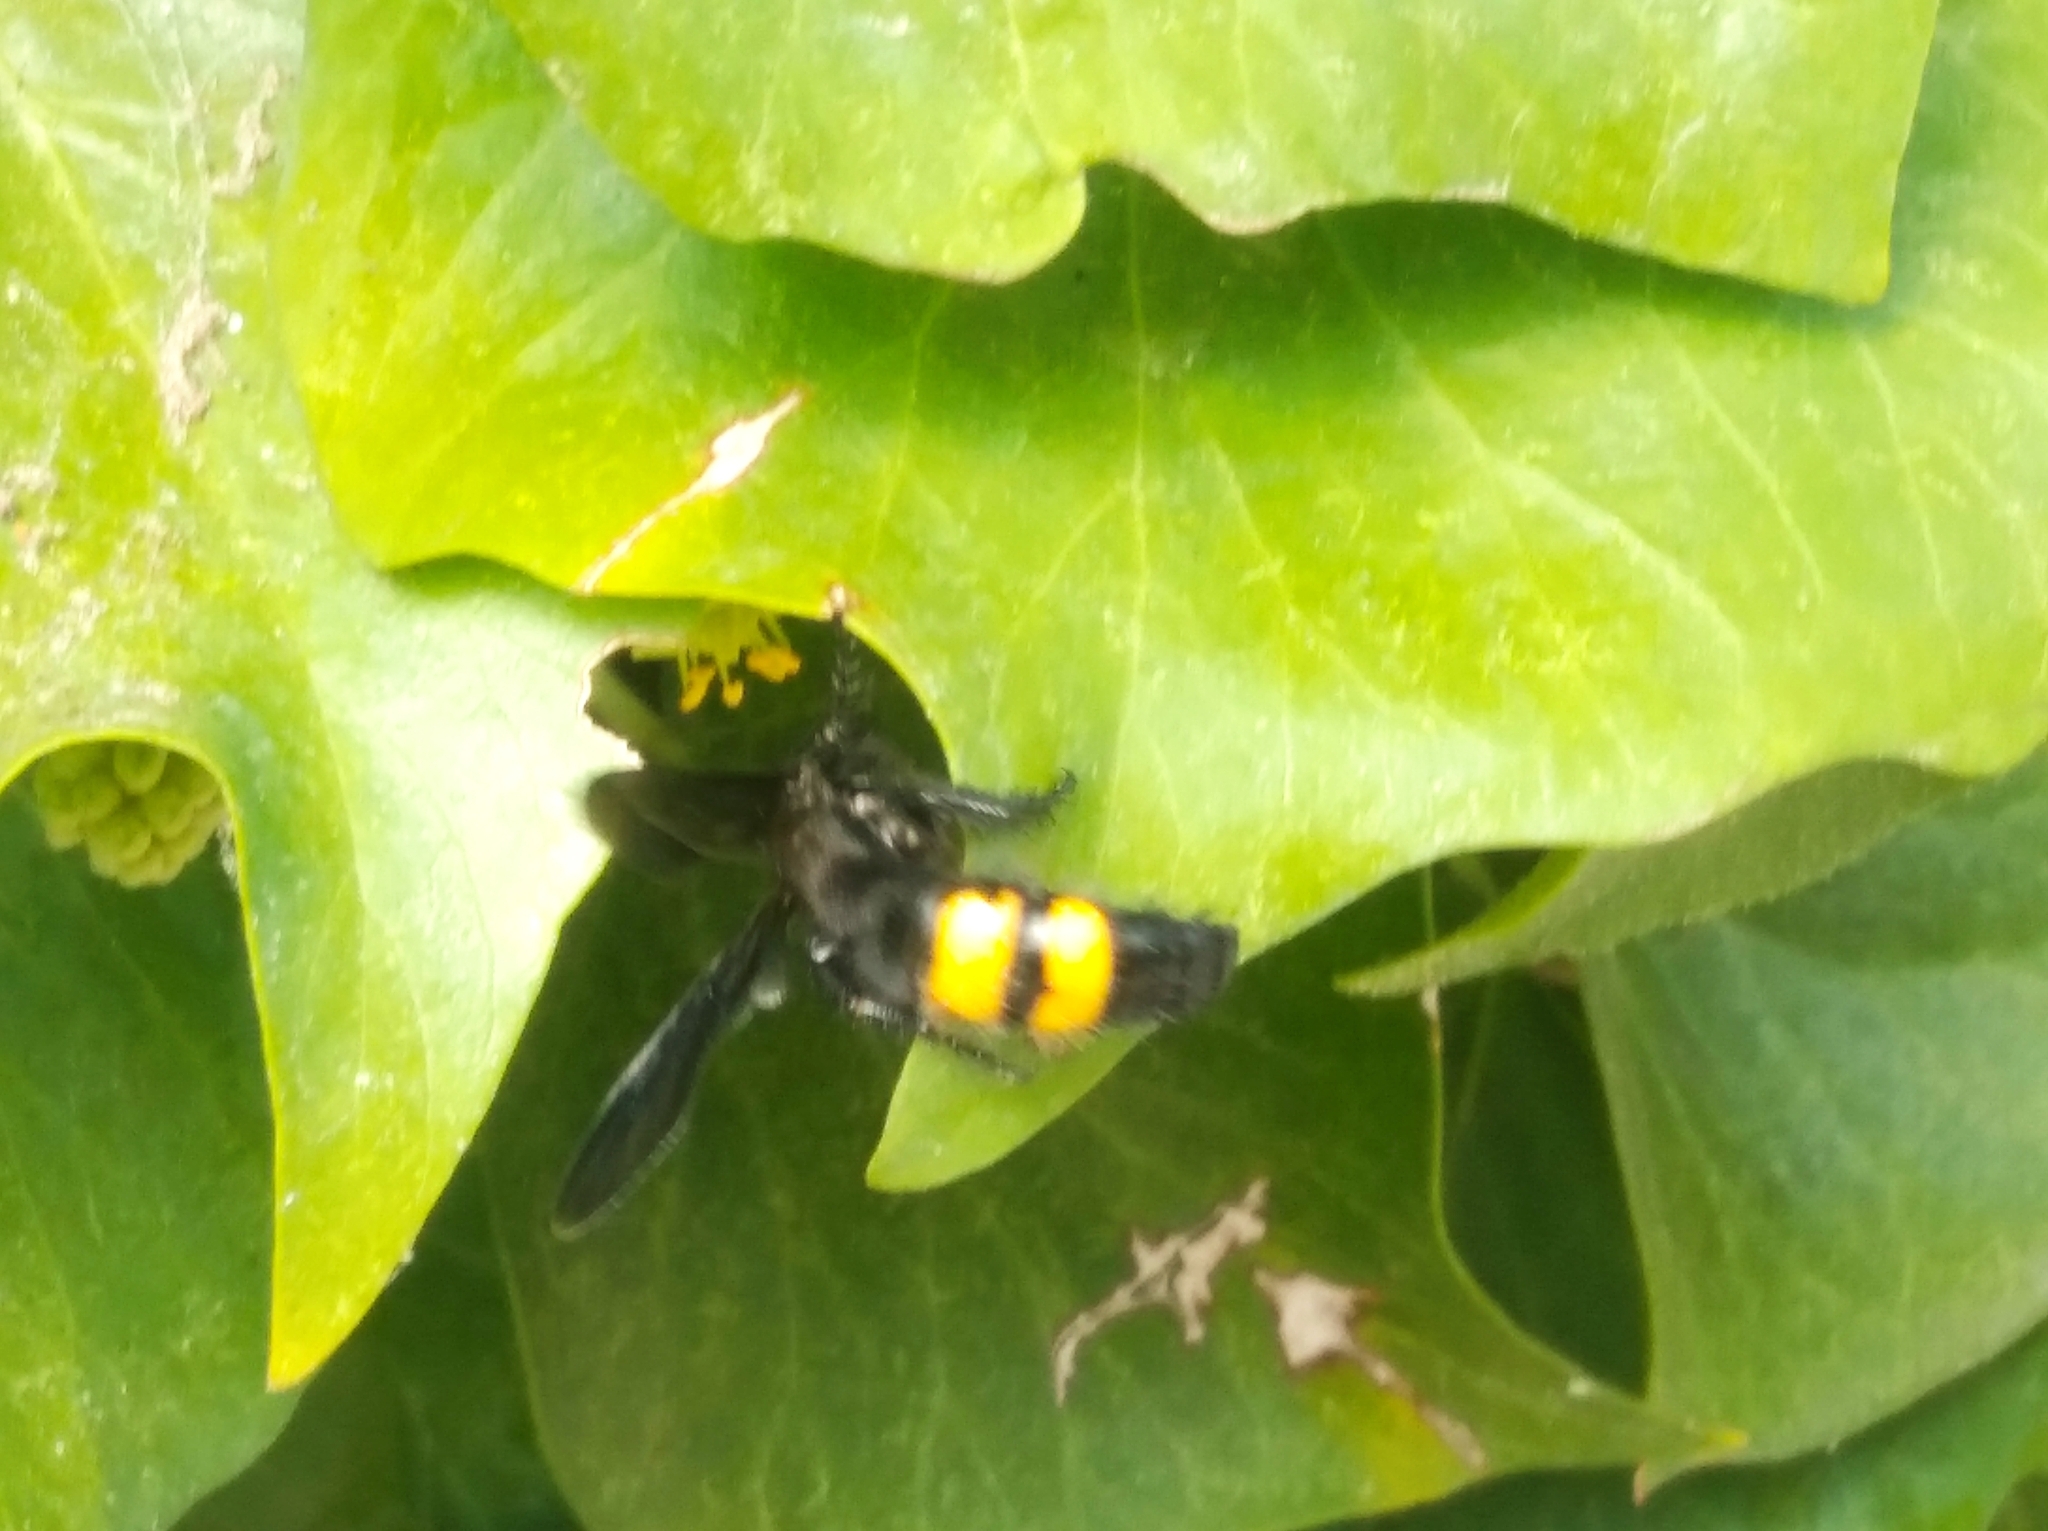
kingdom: Animalia
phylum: Arthropoda
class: Insecta
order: Hymenoptera
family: Scoliidae
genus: Scolia
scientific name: Scolia hirta
